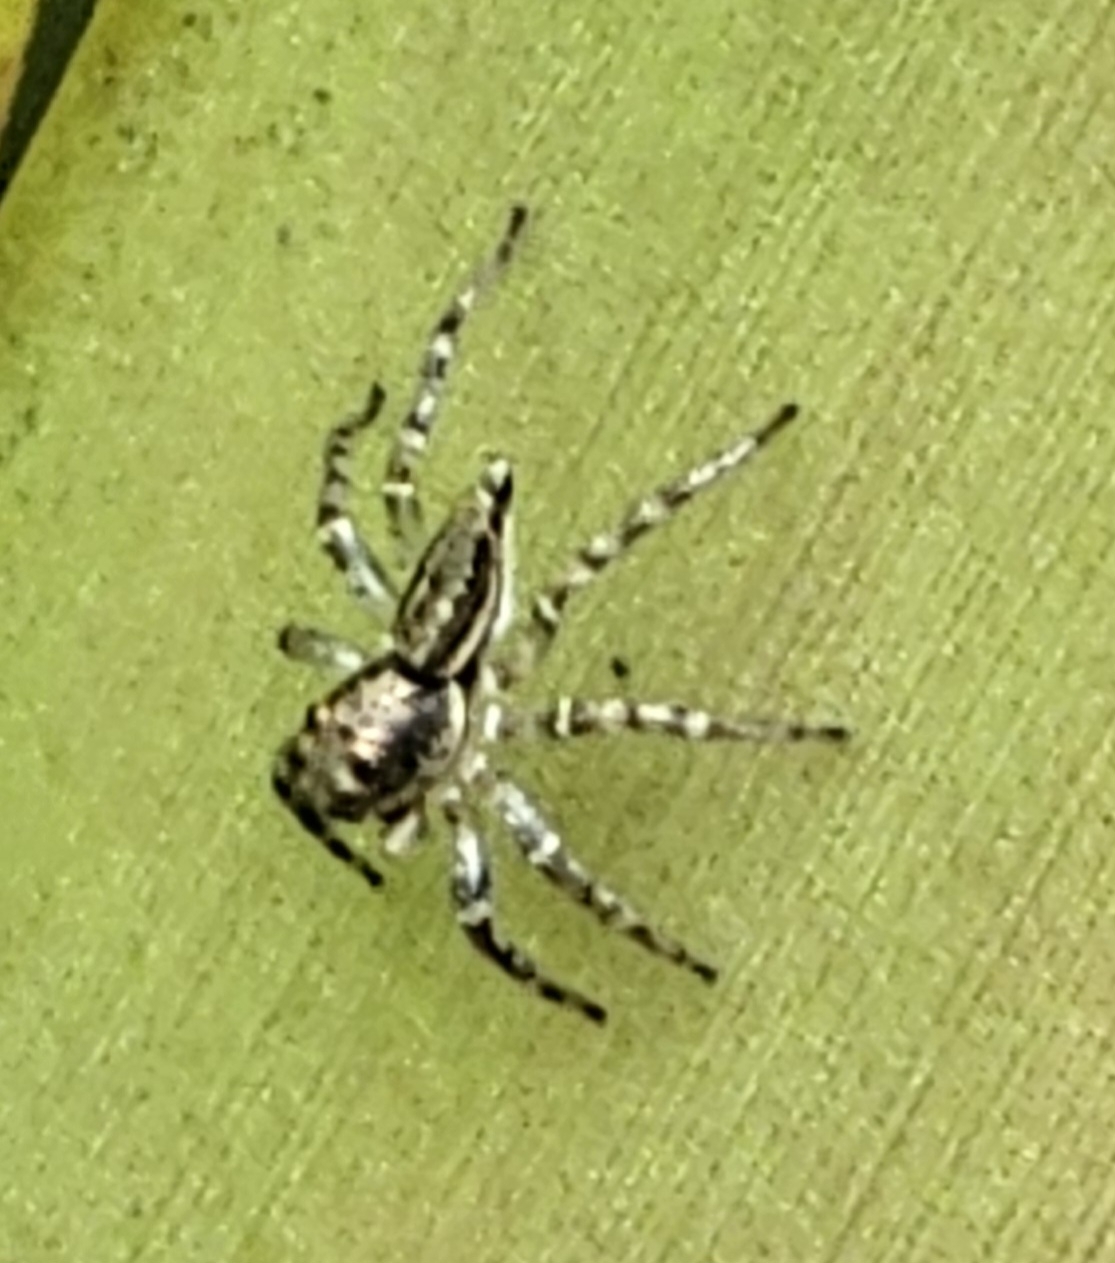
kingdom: Animalia
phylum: Arthropoda
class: Arachnida
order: Araneae
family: Salticidae
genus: Zenodorus
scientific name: Zenodorus swiftorum
